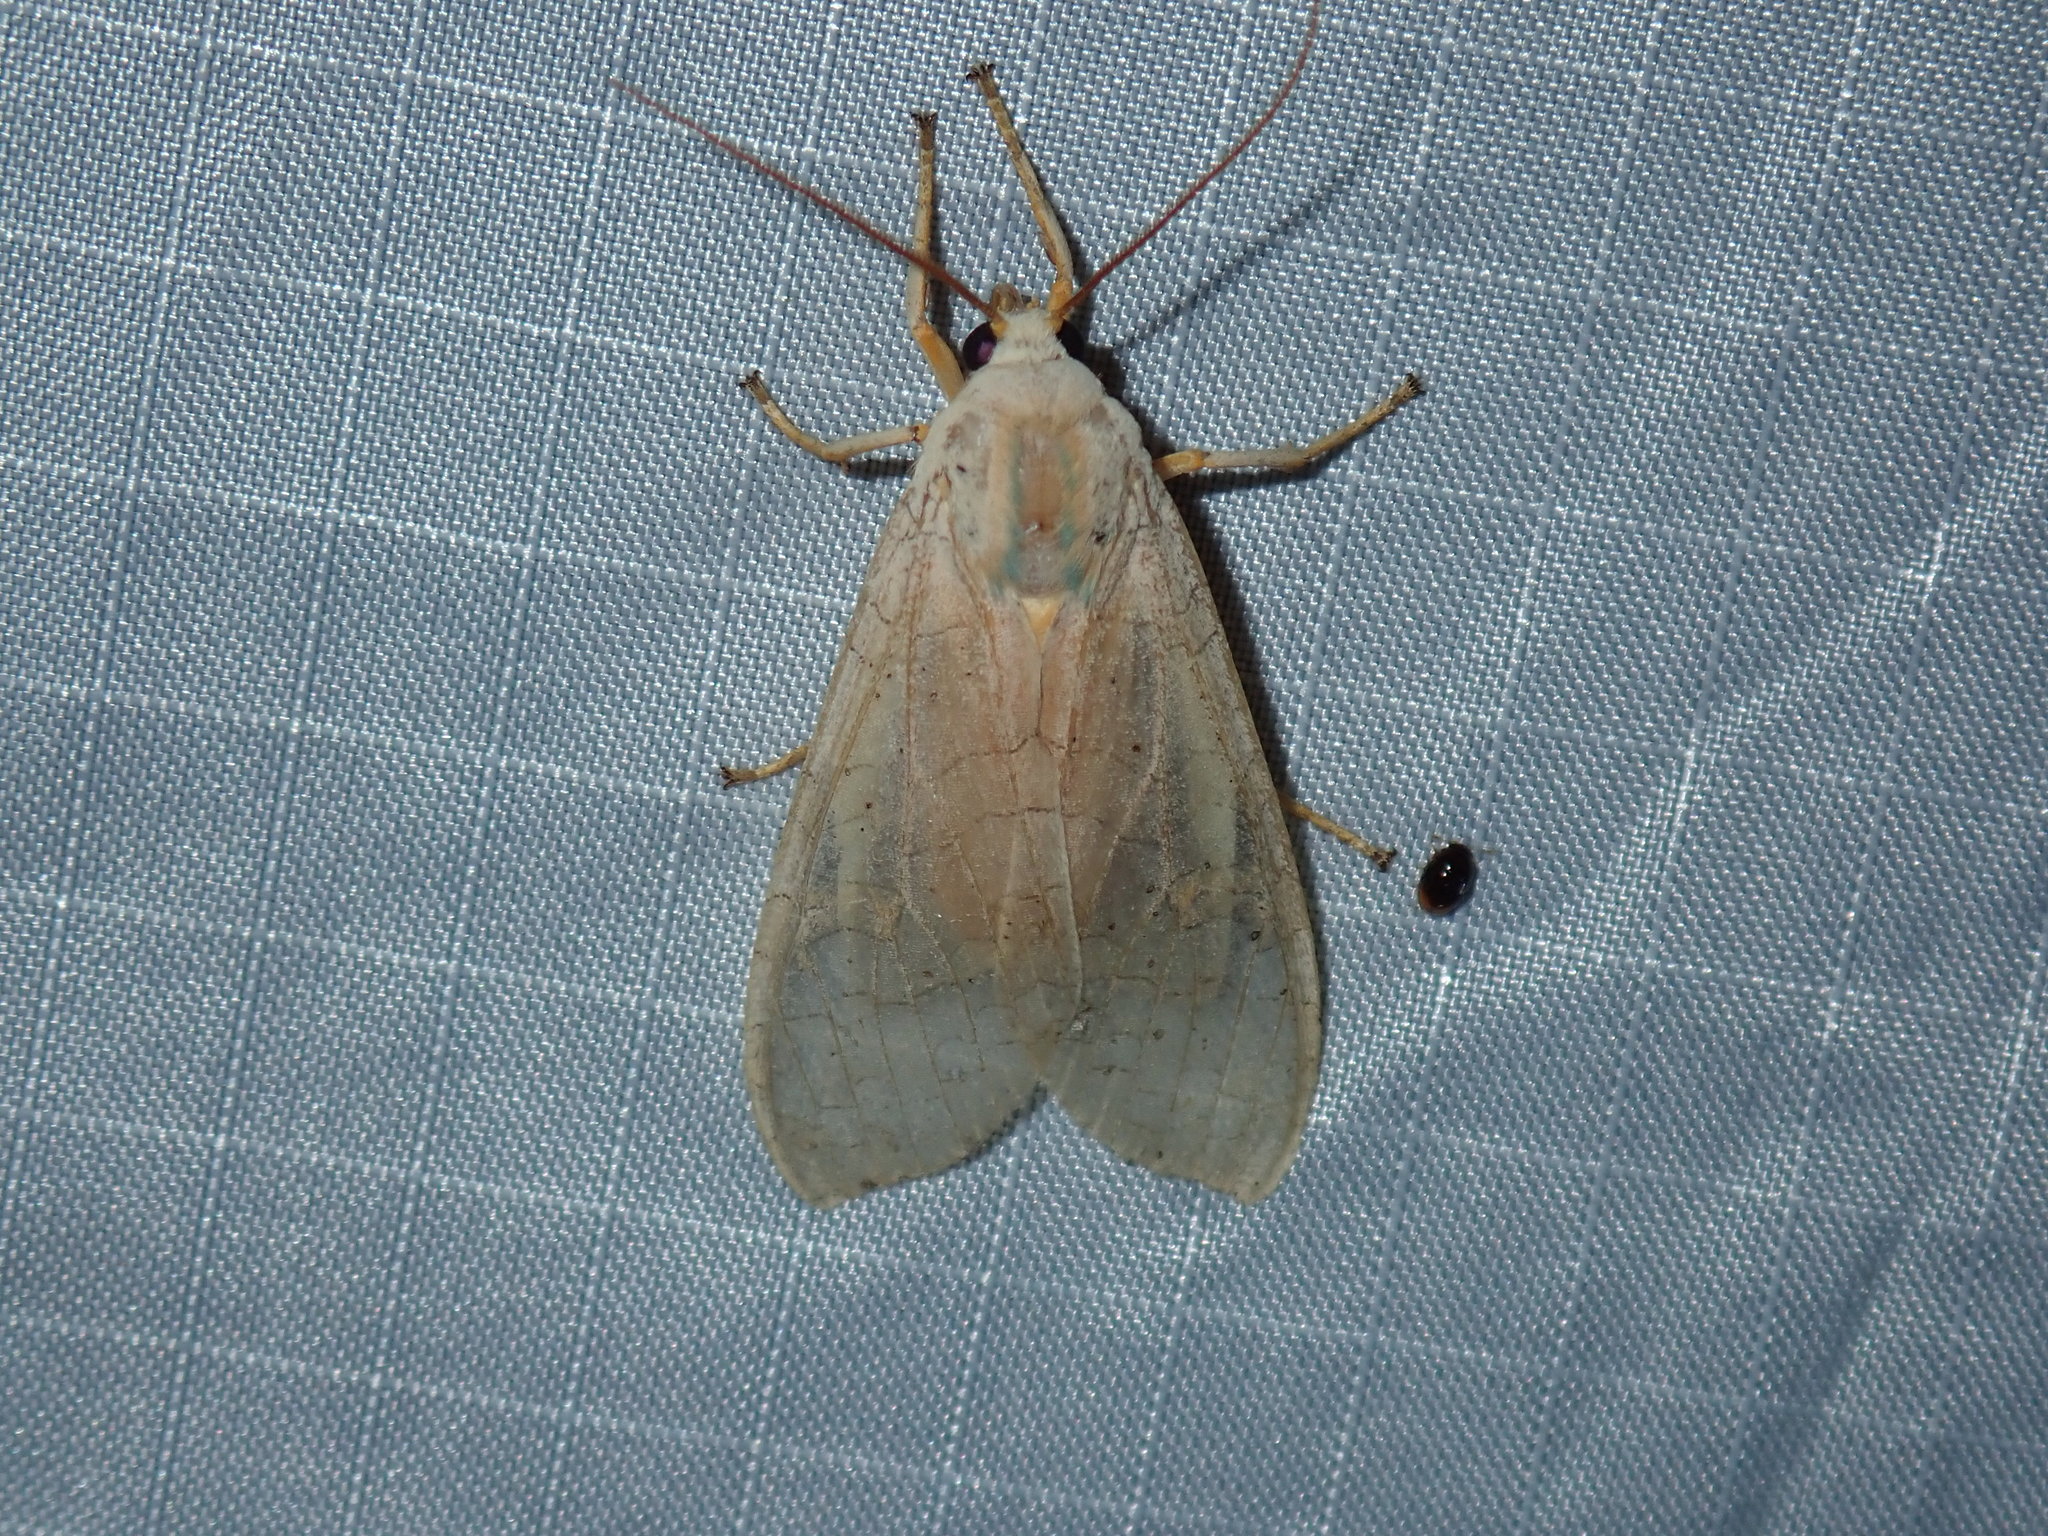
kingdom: Animalia
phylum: Arthropoda
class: Insecta
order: Lepidoptera
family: Erebidae
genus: Halysidota
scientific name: Halysidota
